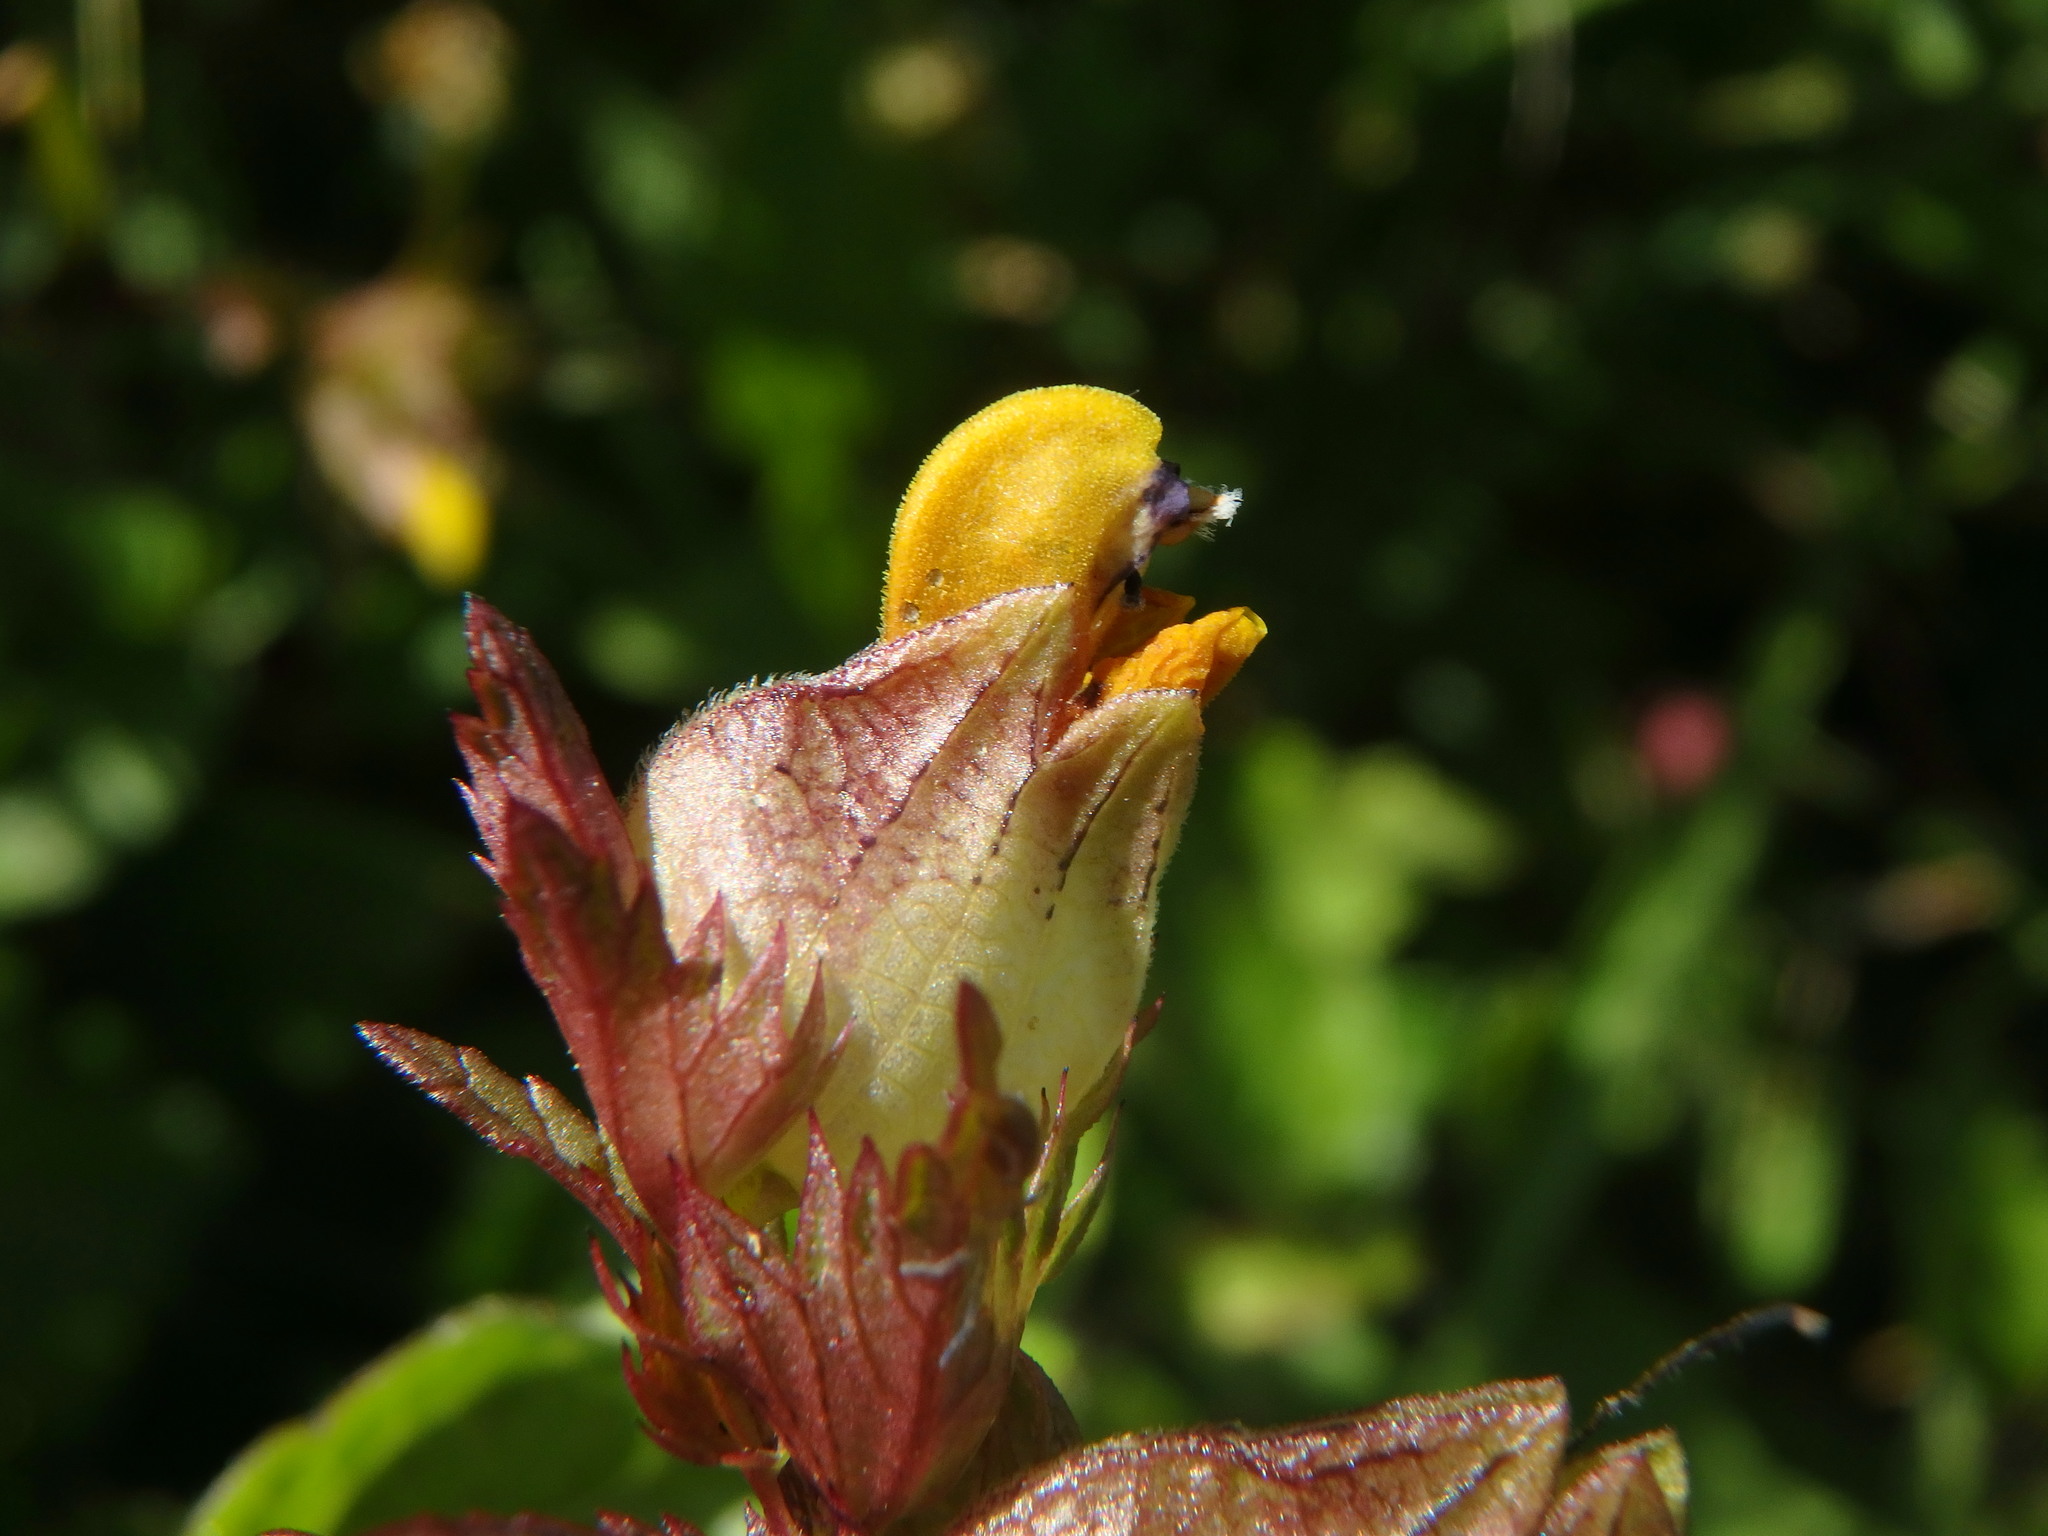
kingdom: Plantae
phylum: Tracheophyta
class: Magnoliopsida
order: Lamiales
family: Orobanchaceae
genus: Rhinanthus
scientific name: Rhinanthus minor
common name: Yellow-rattle
